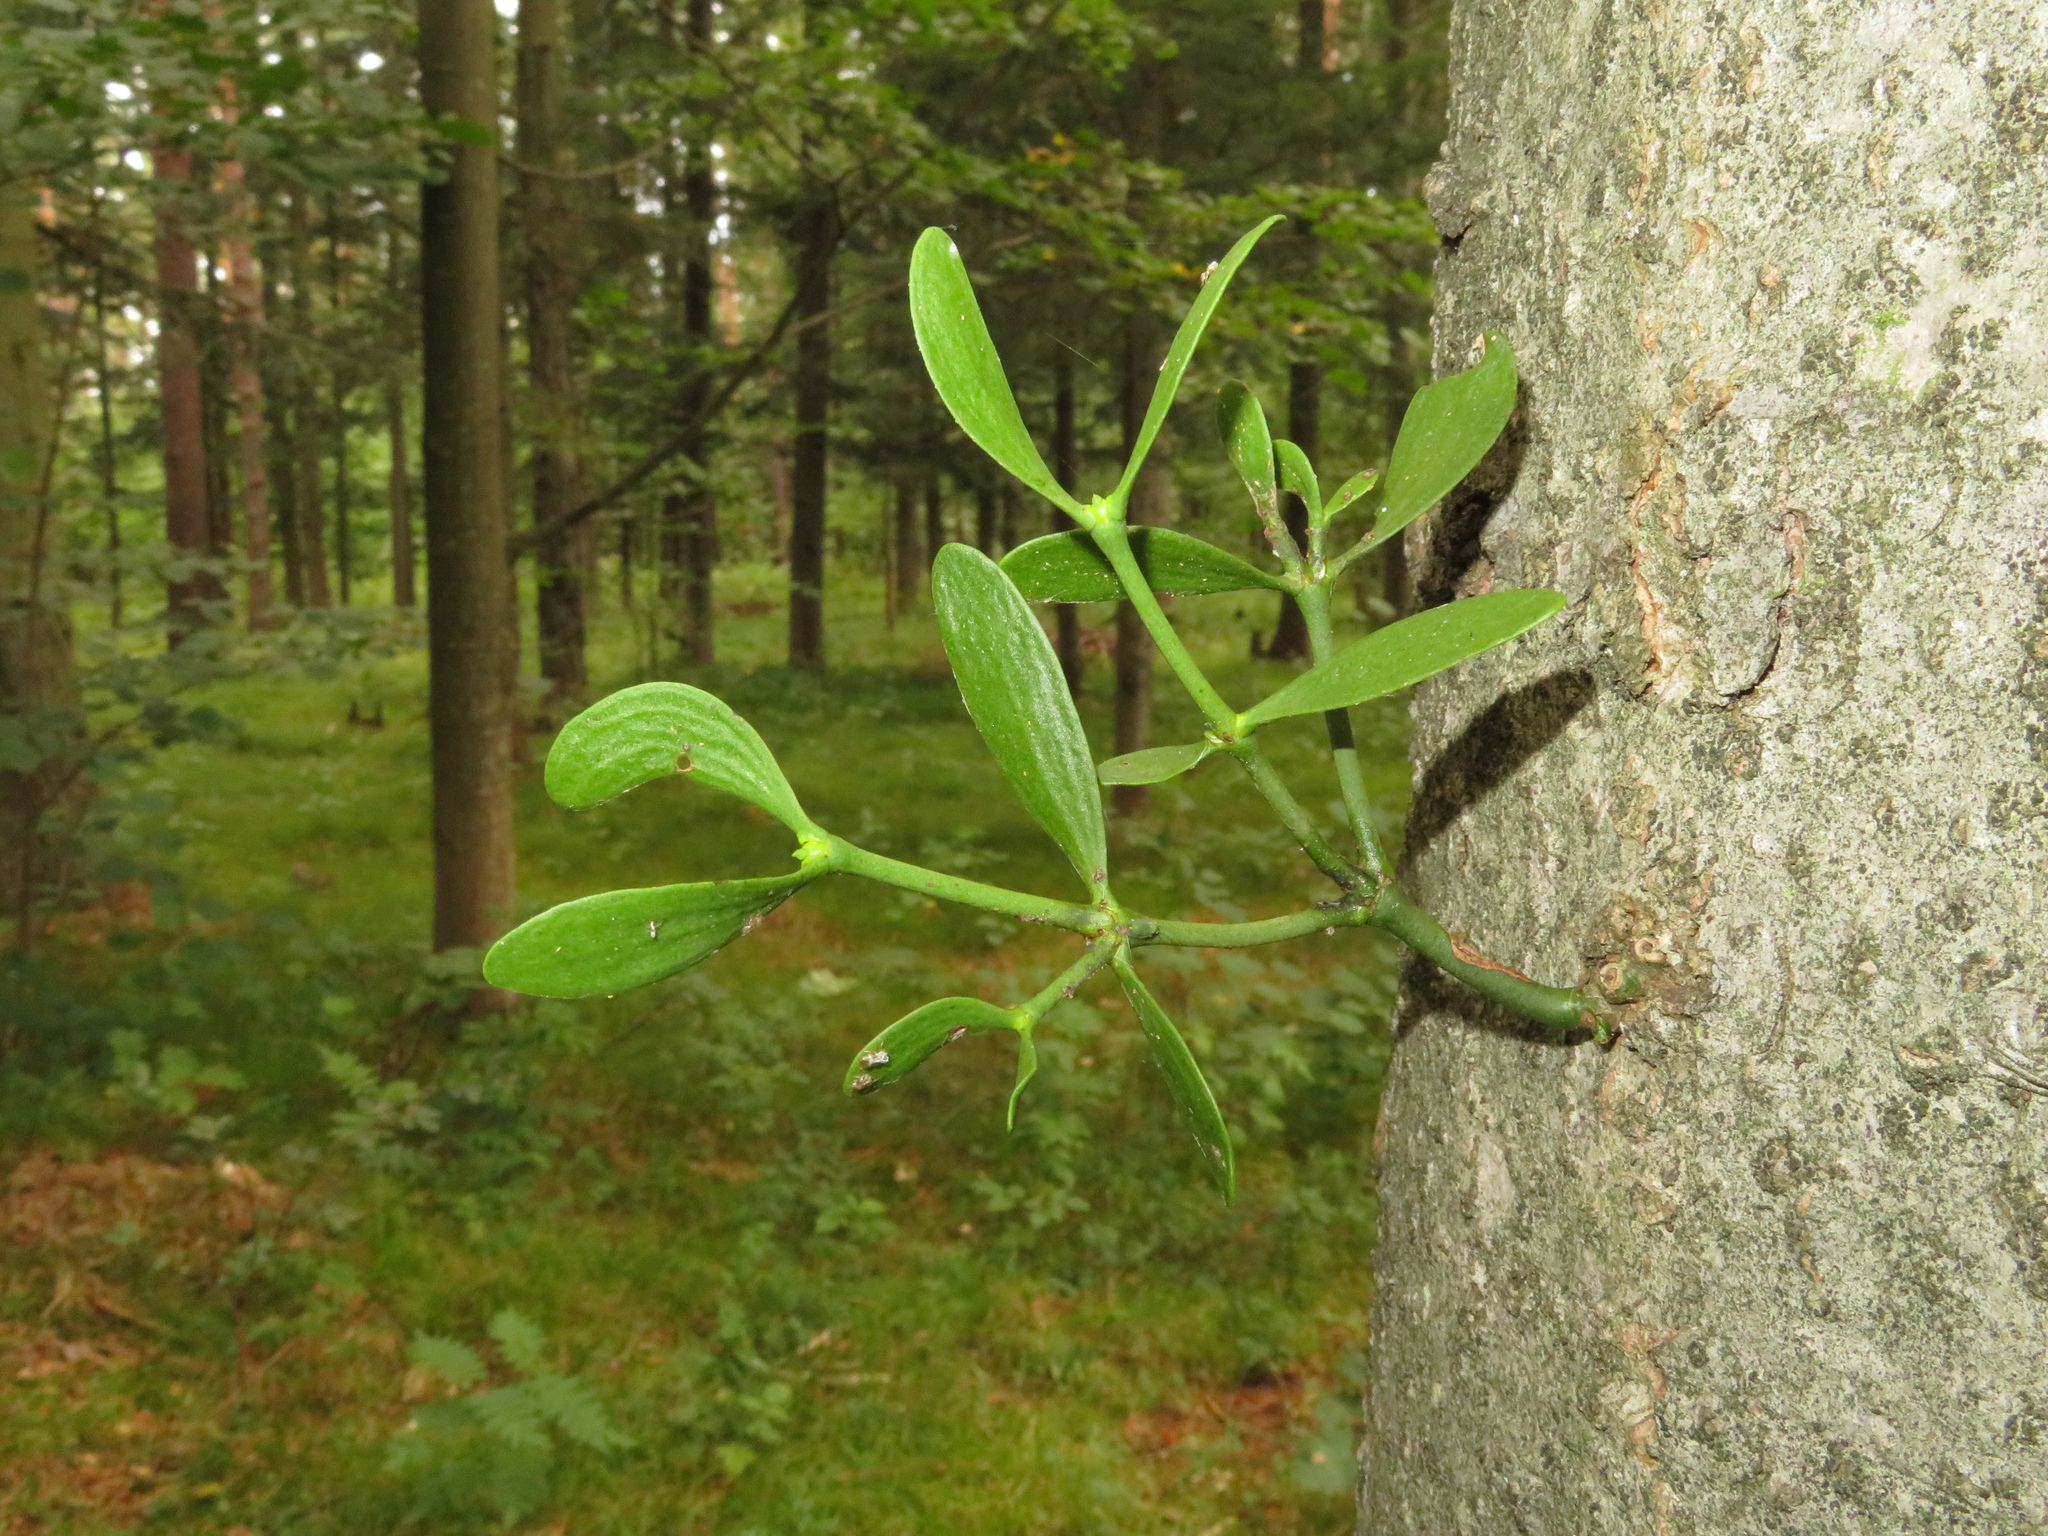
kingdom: Plantae
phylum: Tracheophyta
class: Magnoliopsida
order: Santalales
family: Viscaceae
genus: Viscum
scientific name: Viscum album
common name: Mistletoe
